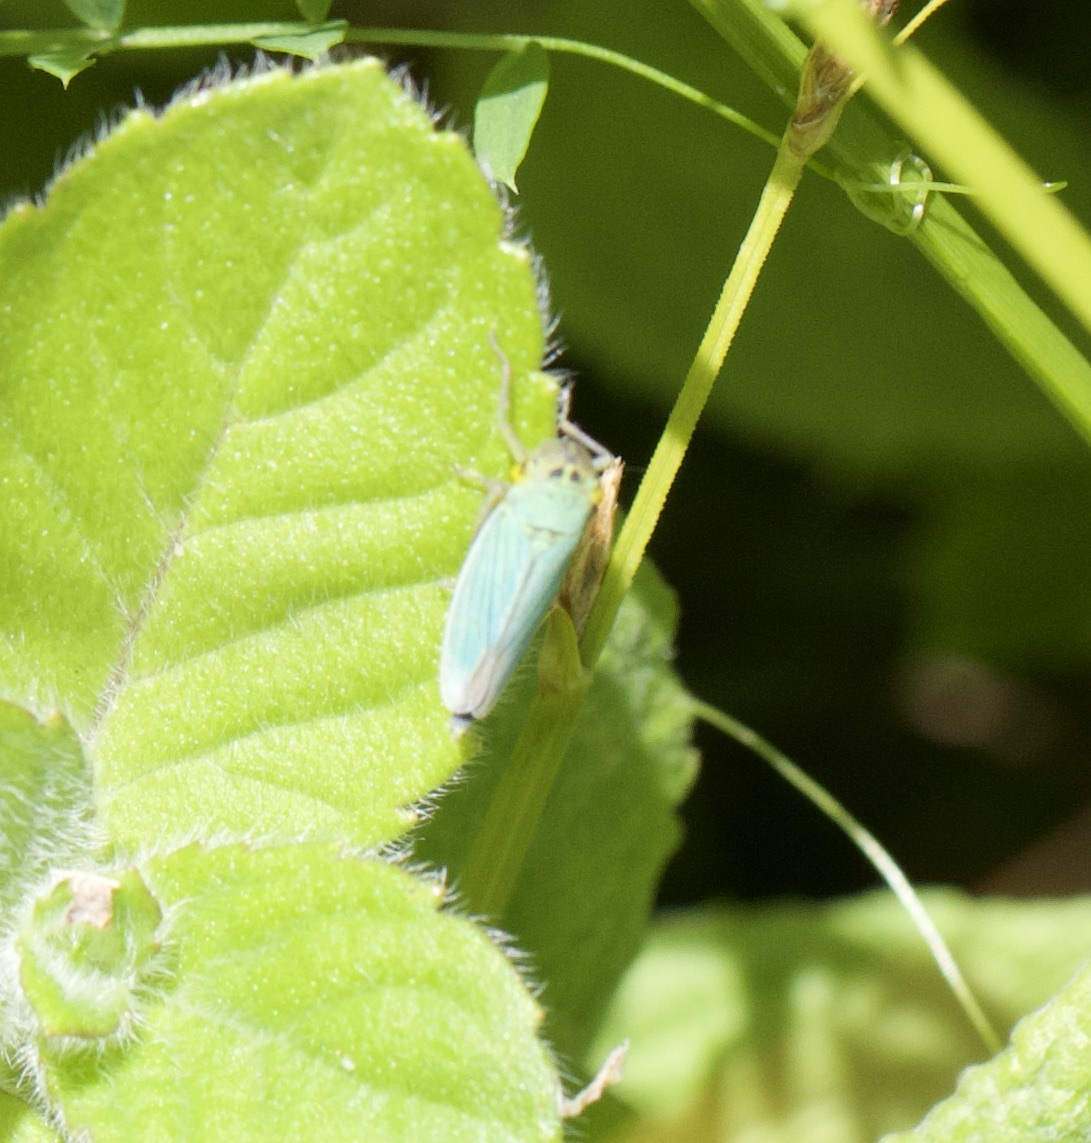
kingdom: Animalia
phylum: Arthropoda
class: Insecta
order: Hemiptera
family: Cicadellidae
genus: Cicadella
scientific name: Cicadella viridis
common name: Leafhopper
